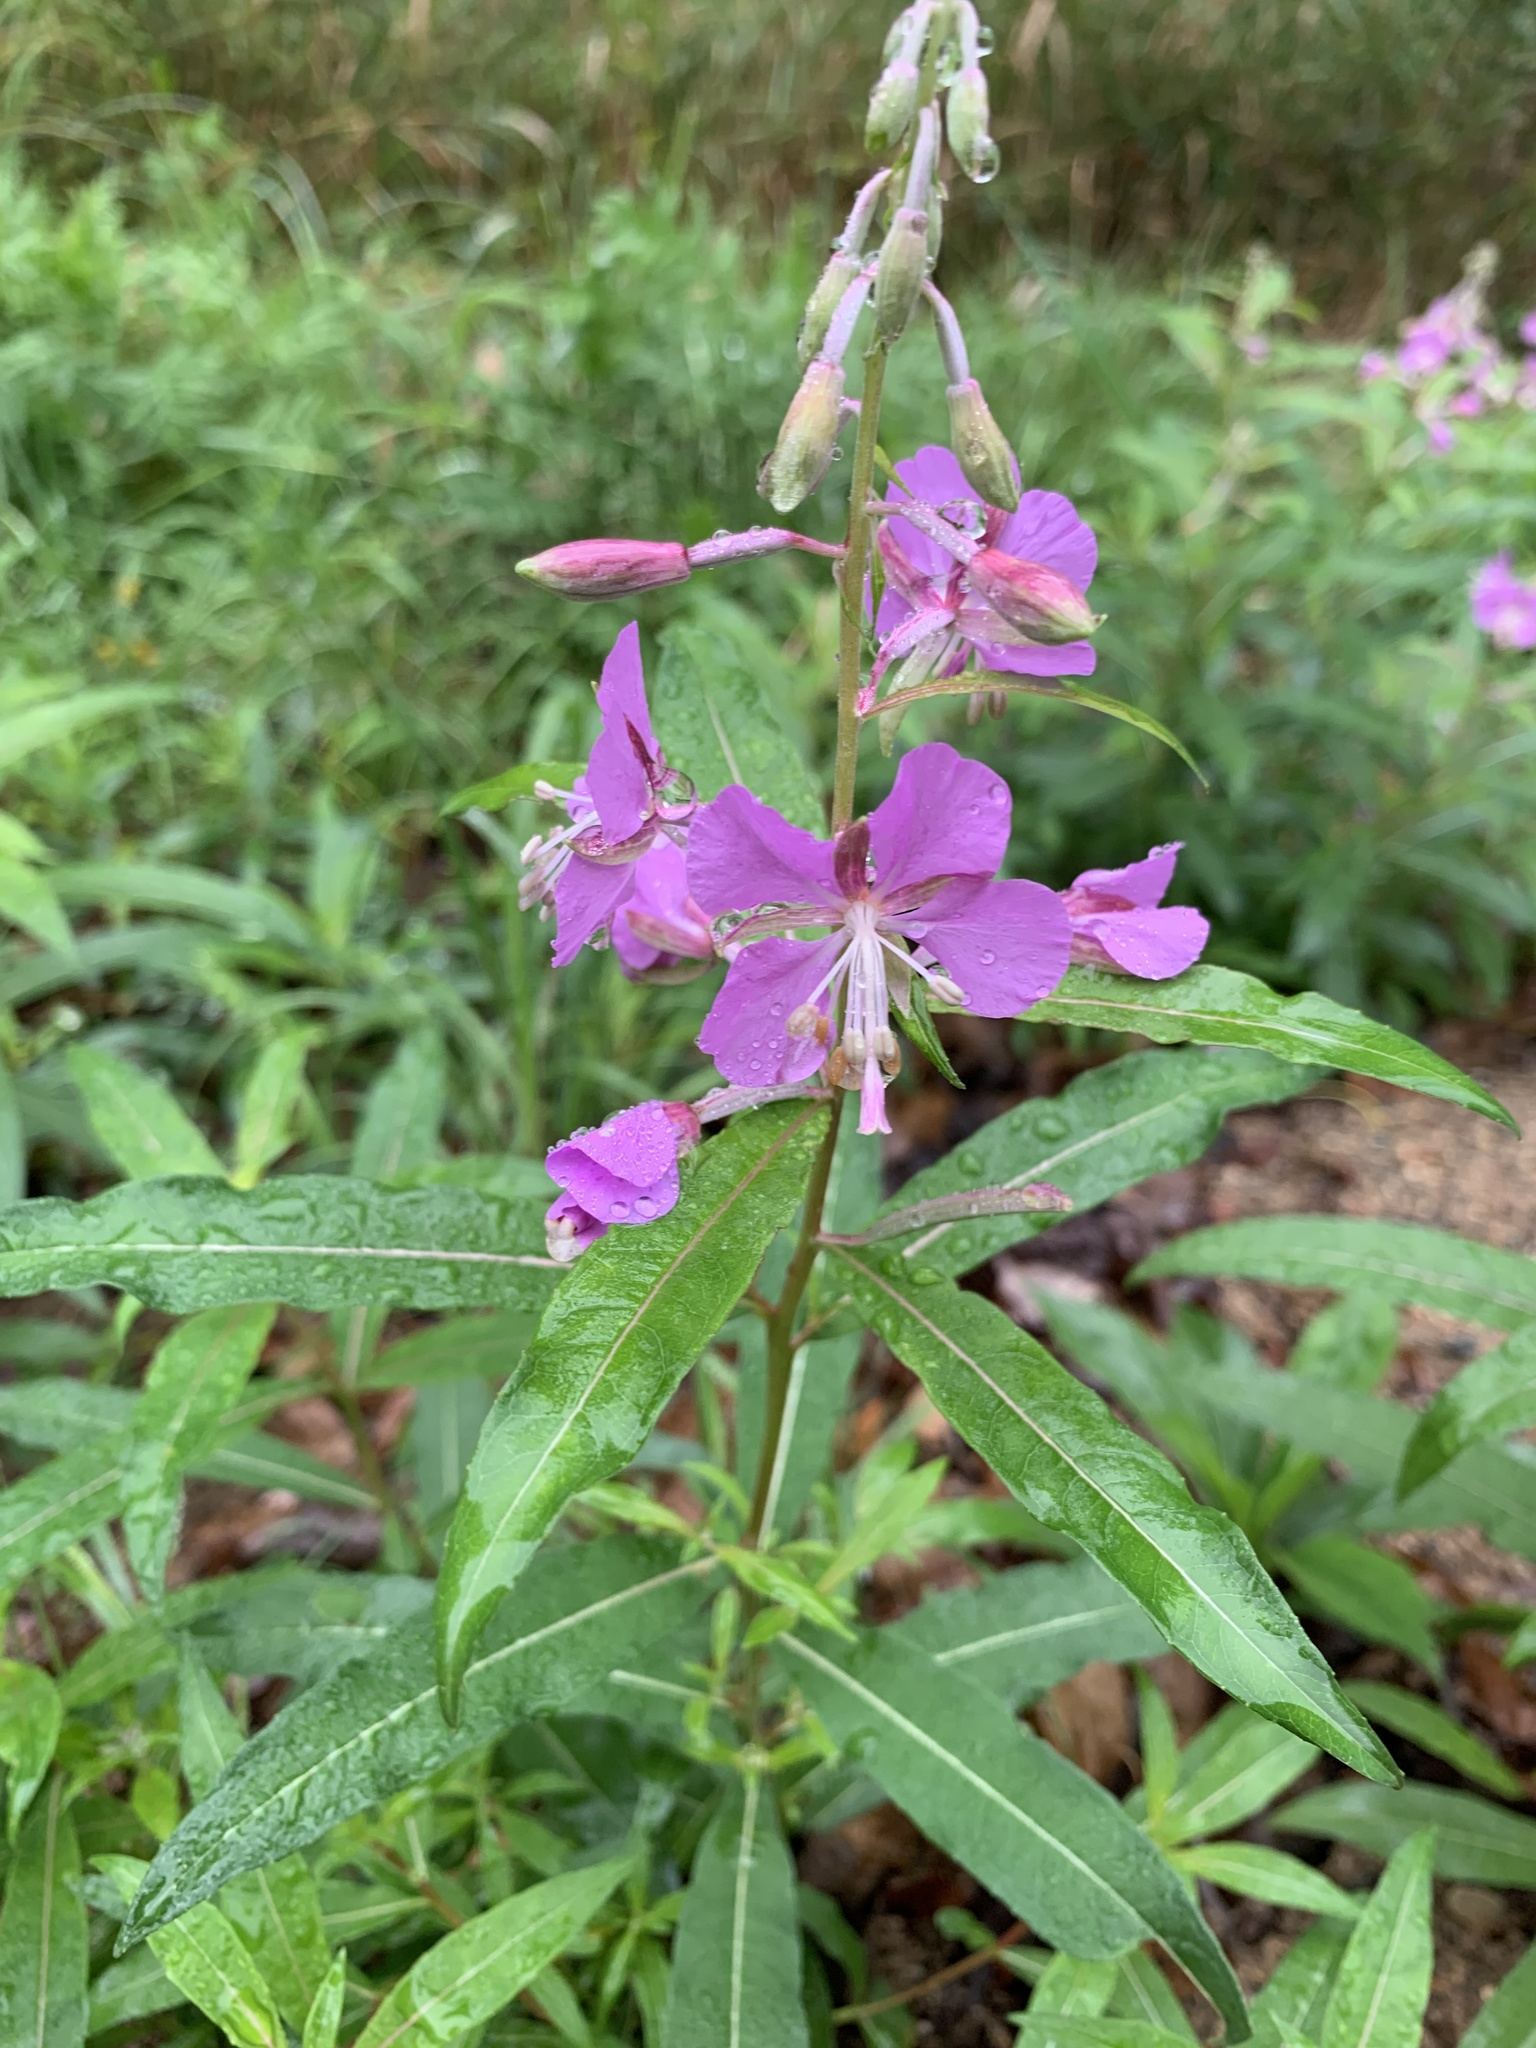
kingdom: Plantae
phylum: Tracheophyta
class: Magnoliopsida
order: Myrtales
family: Onagraceae
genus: Chamaenerion
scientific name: Chamaenerion angustifolium
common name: Fireweed
